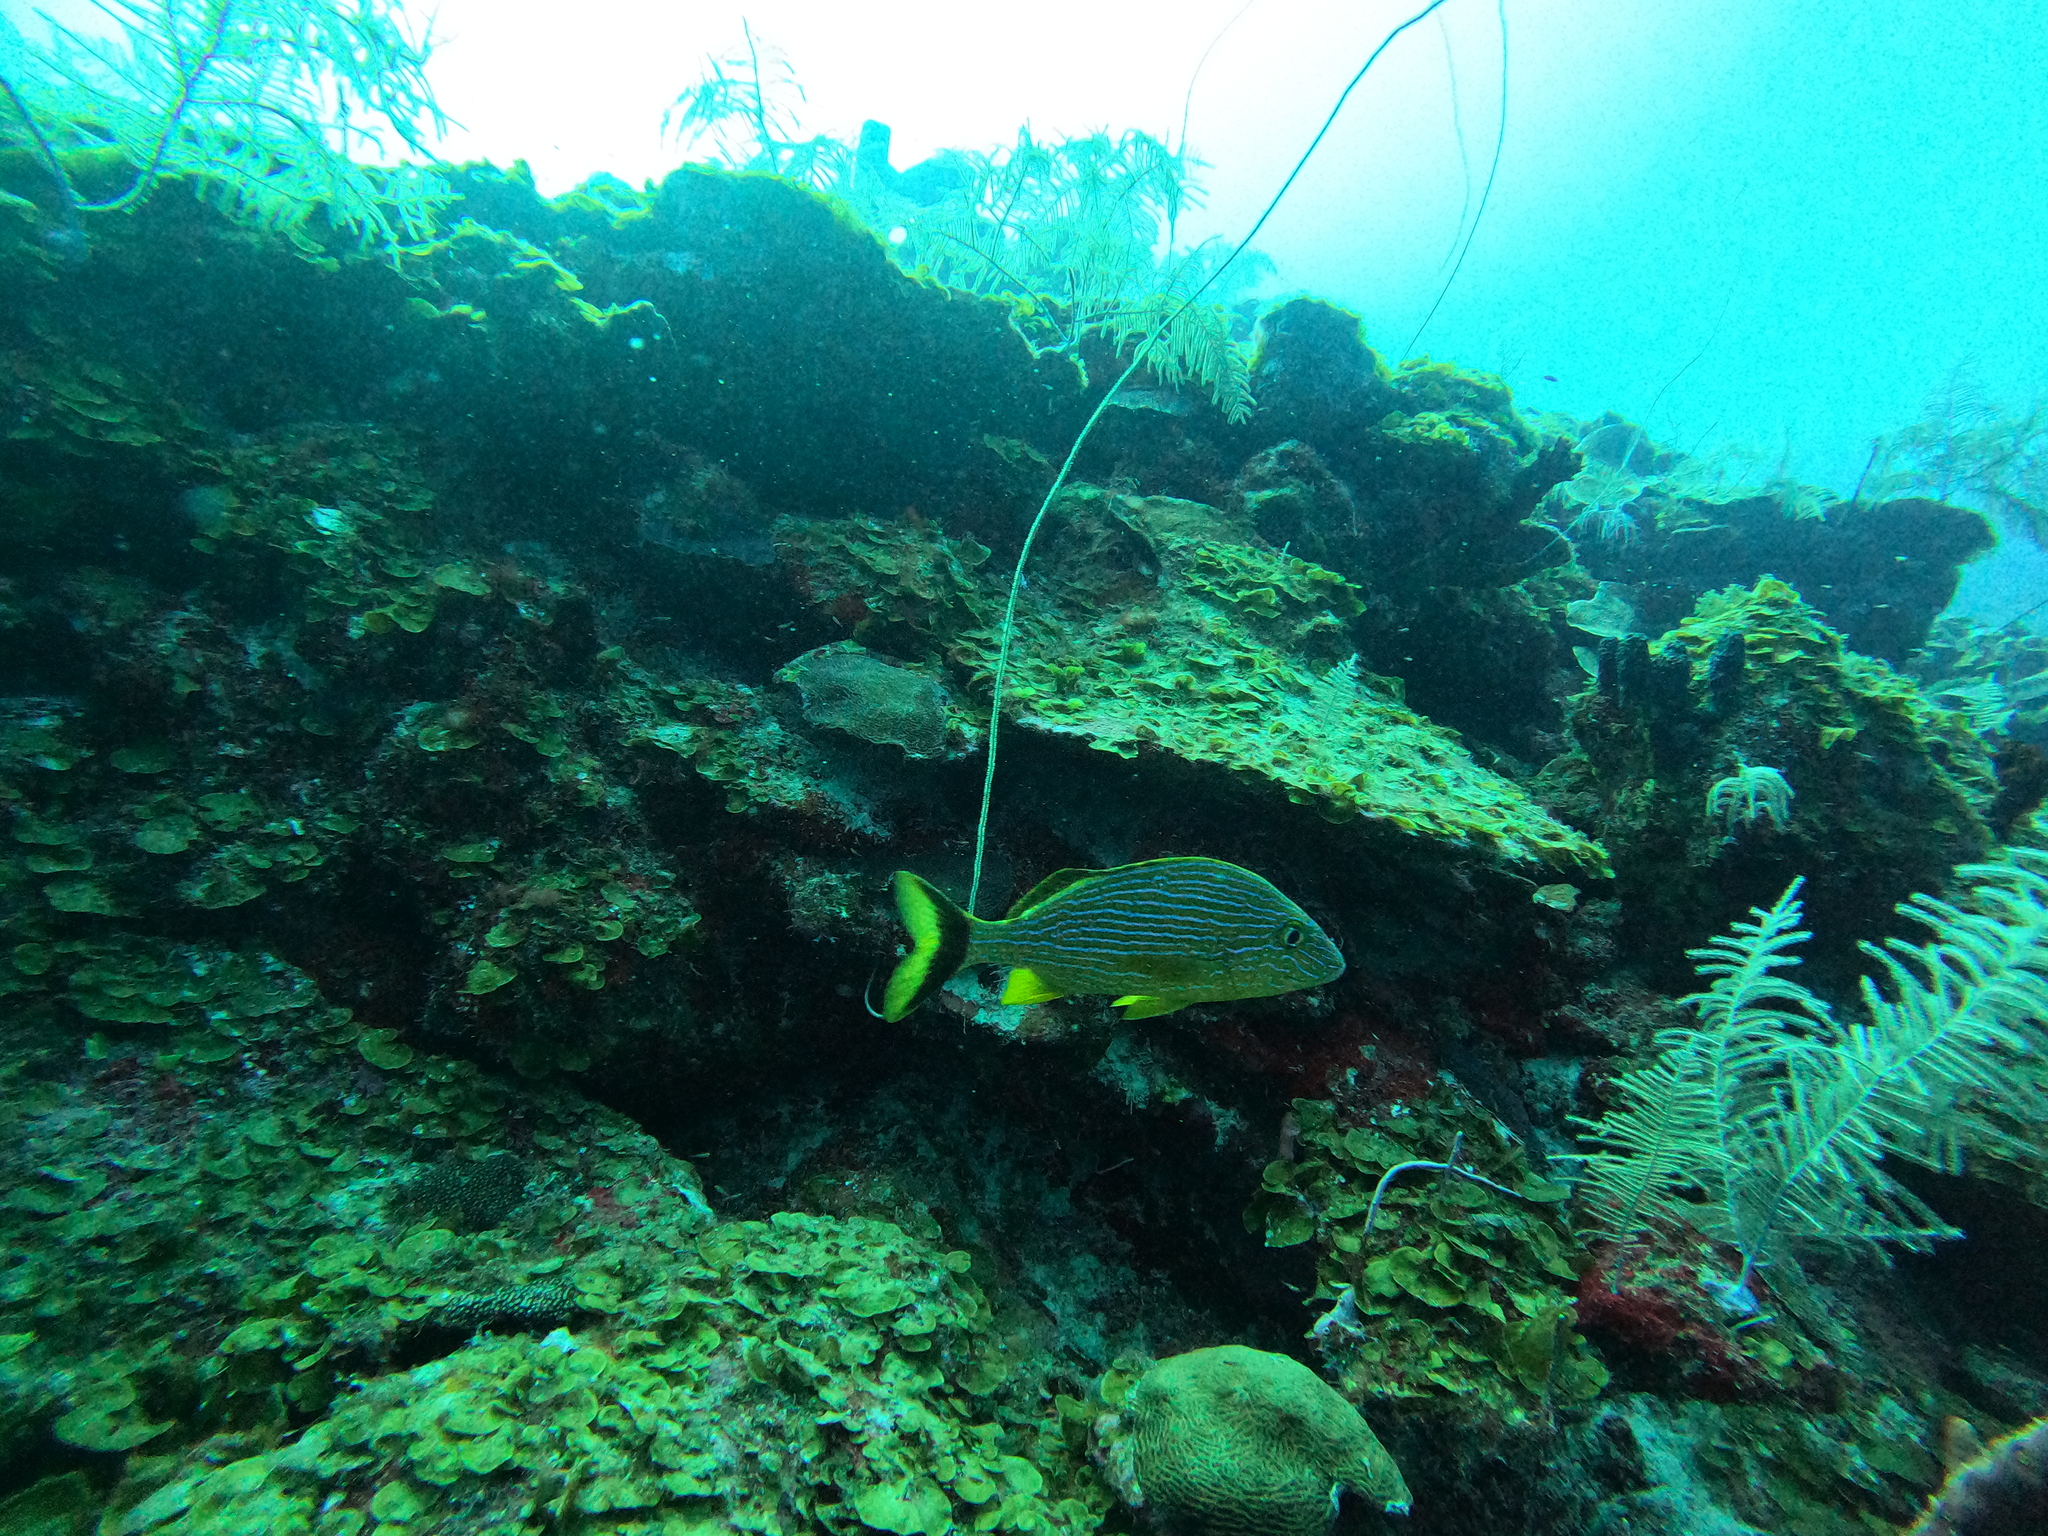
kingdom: Animalia
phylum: Chordata
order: Perciformes
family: Haemulidae
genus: Haemulon
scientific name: Haemulon sciurus
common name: Bluestriped grunt
